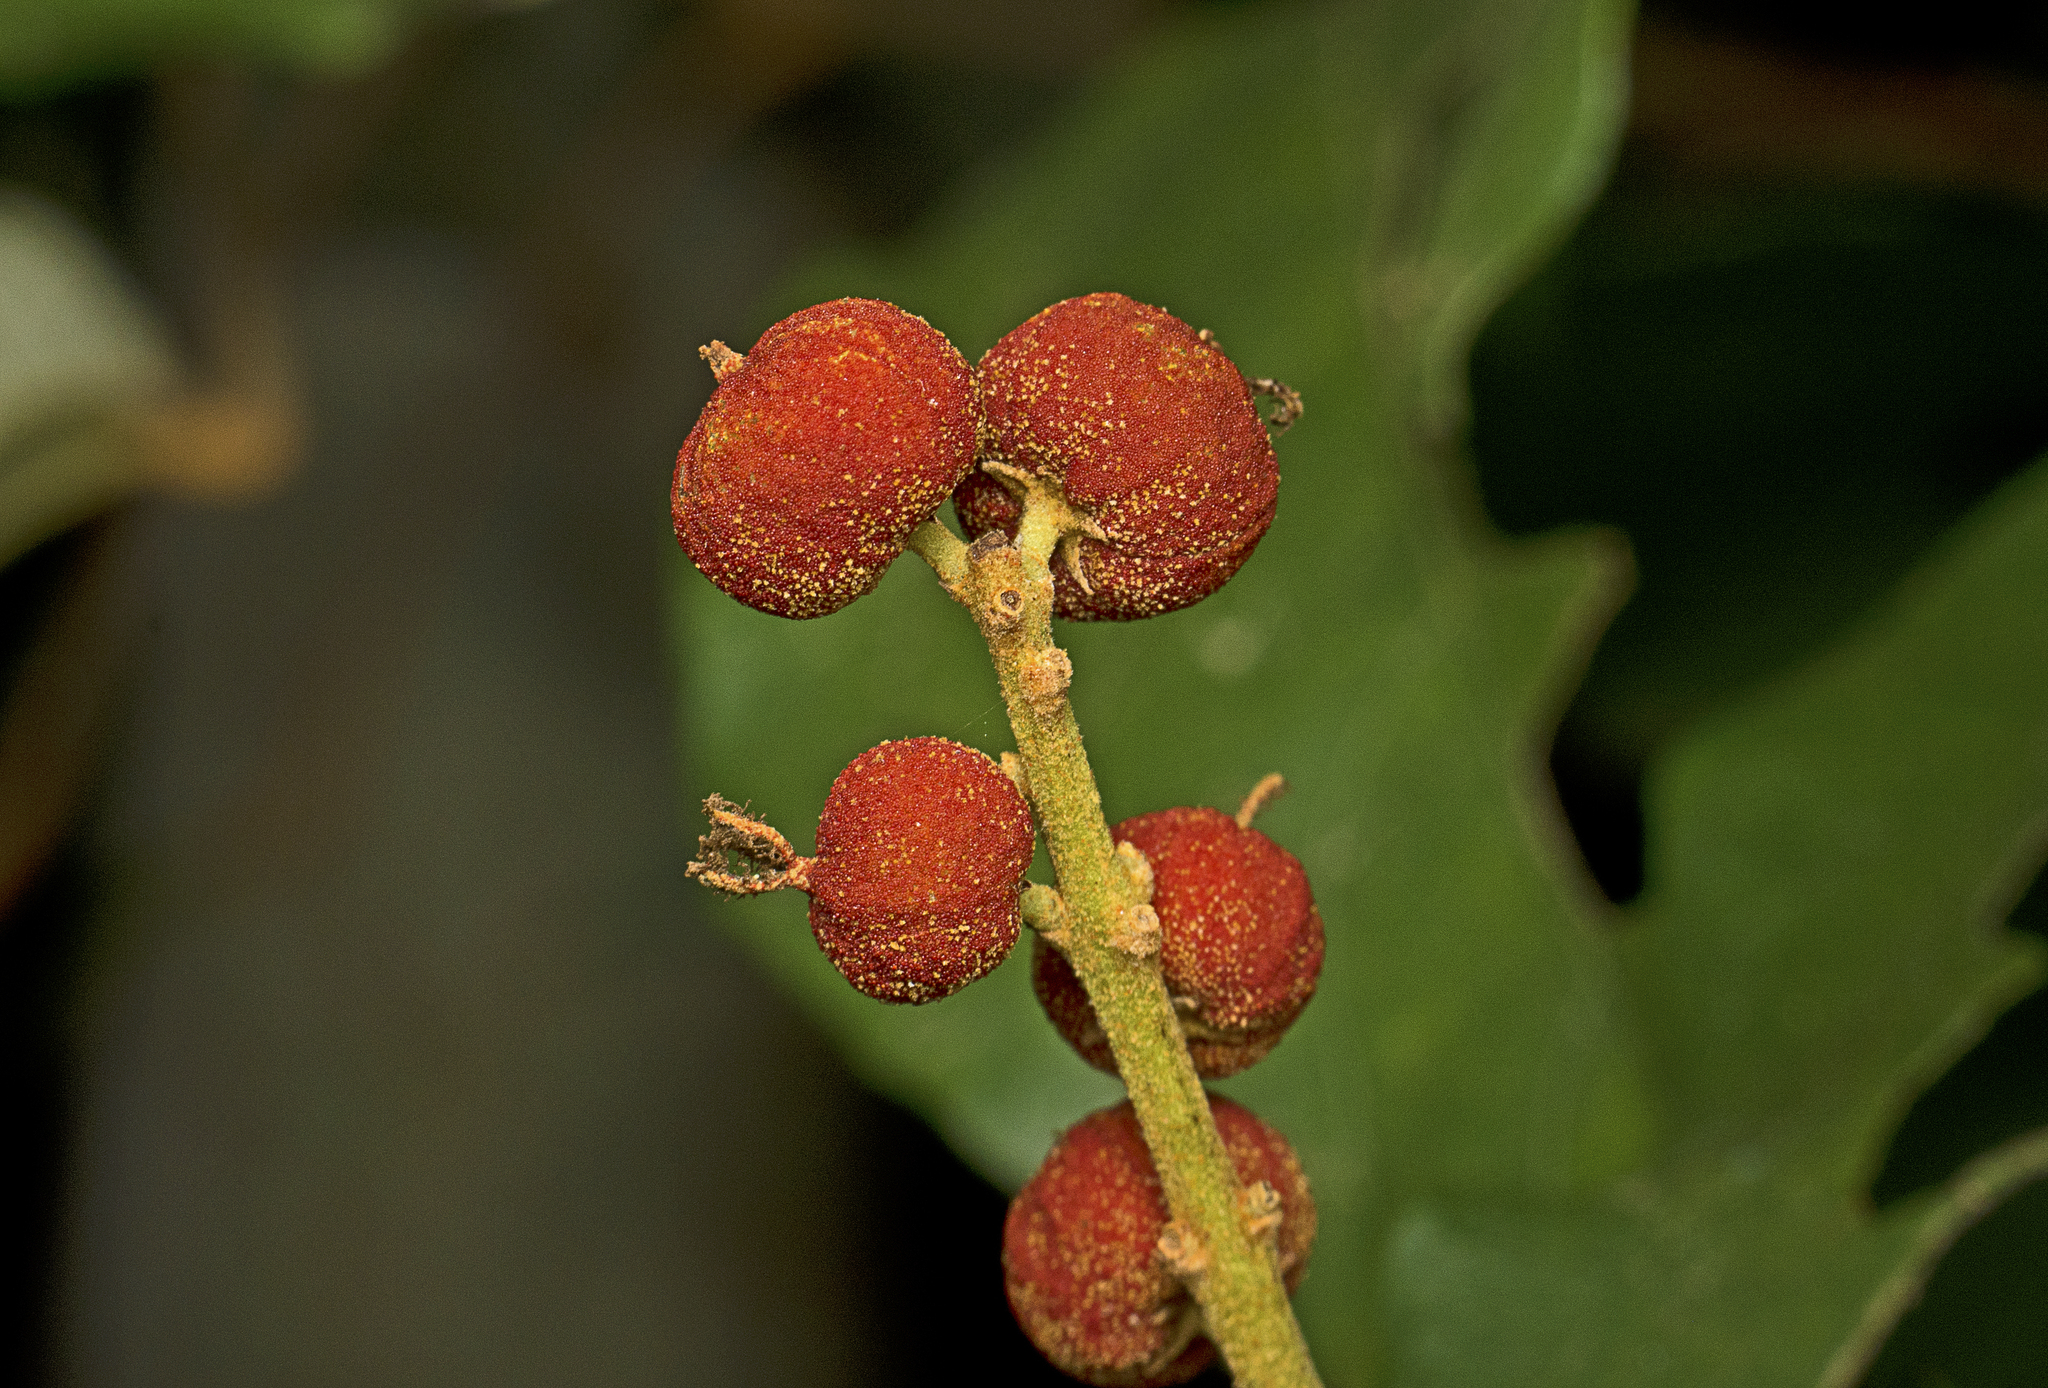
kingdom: Plantae
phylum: Tracheophyta
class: Magnoliopsida
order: Malpighiales
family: Euphorbiaceae
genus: Mallotus
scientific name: Mallotus philippensis
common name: Kamala tree
